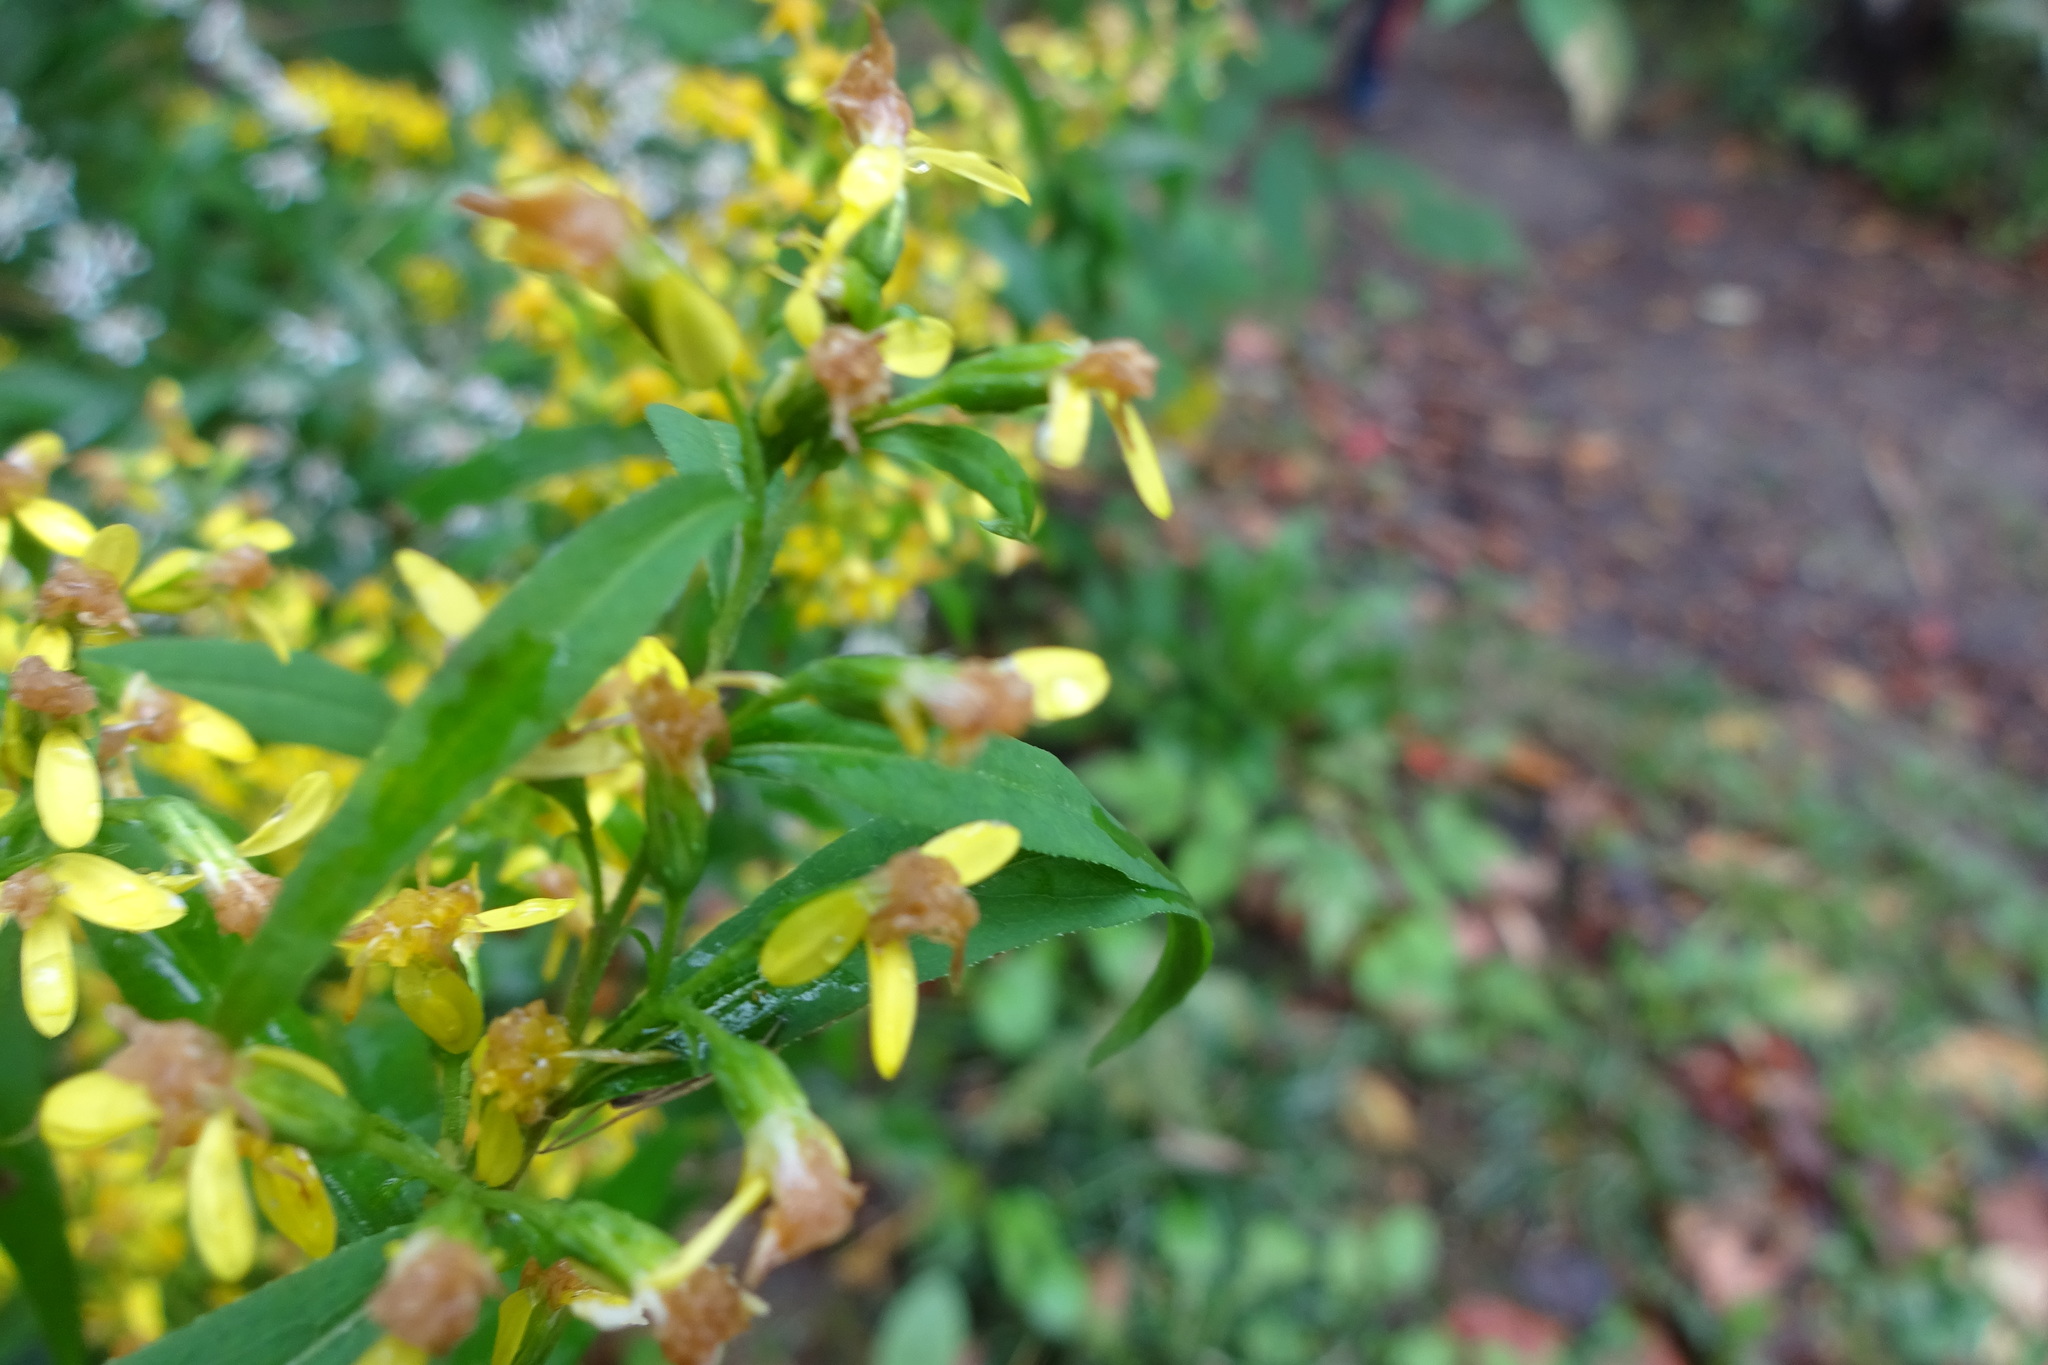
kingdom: Plantae
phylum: Tracheophyta
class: Magnoliopsida
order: Asterales
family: Asteraceae
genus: Solidago
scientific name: Solidago caesia
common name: Woodland goldenrod
